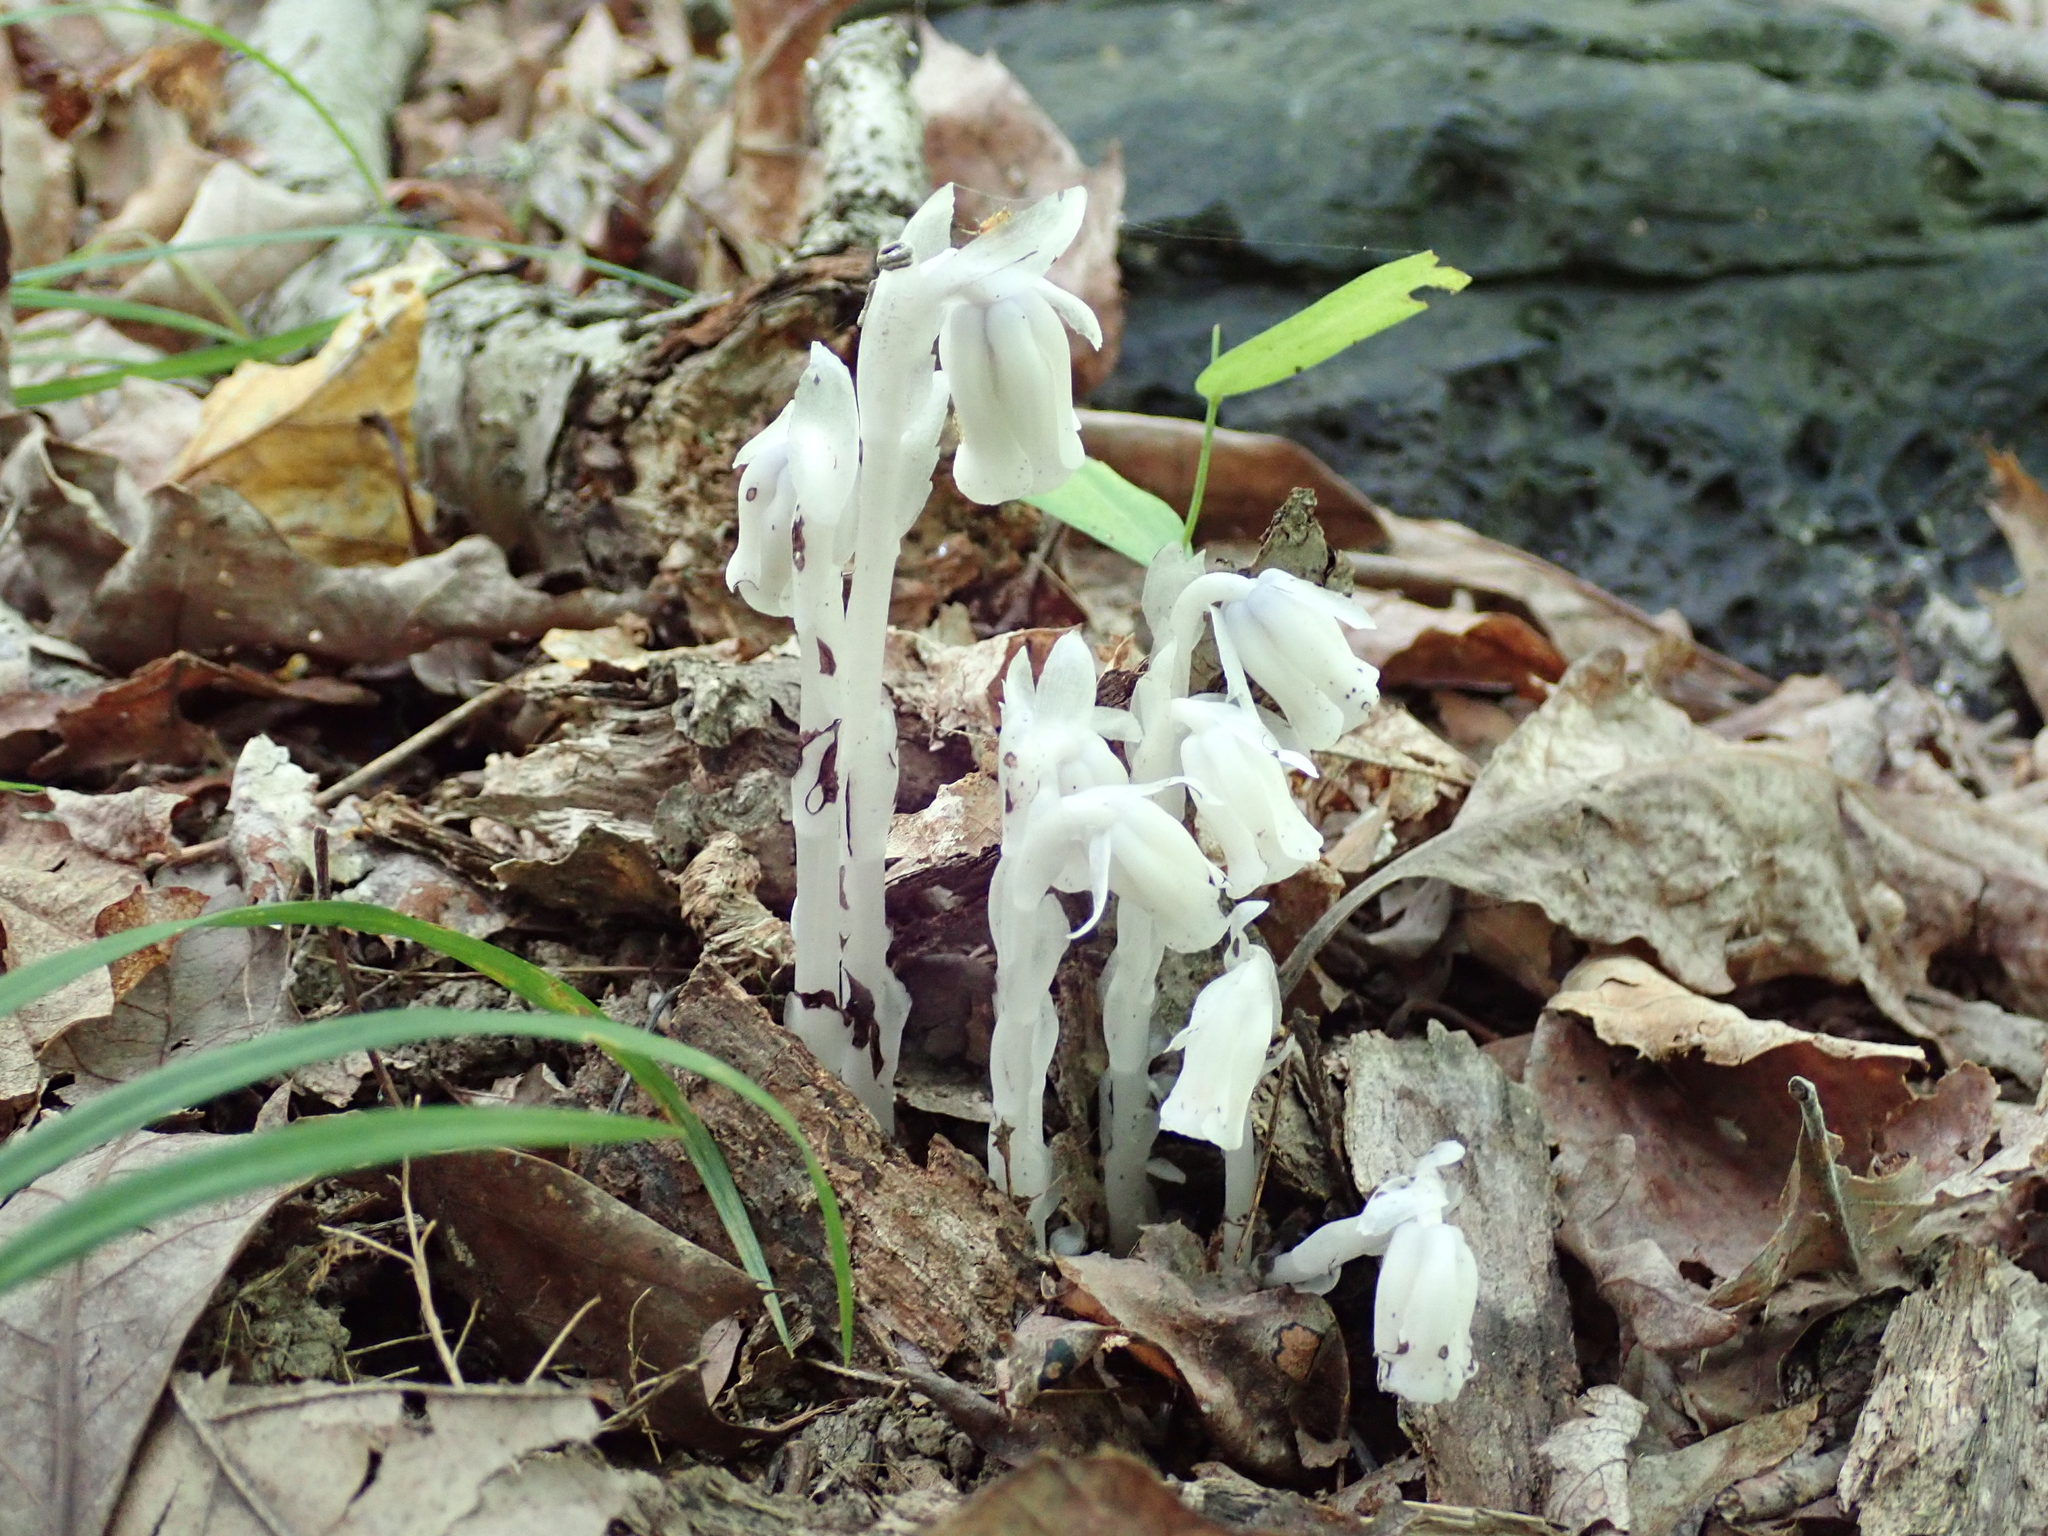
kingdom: Plantae
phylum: Tracheophyta
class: Magnoliopsida
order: Ericales
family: Ericaceae
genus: Monotropa
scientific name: Monotropa uniflora
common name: Convulsion root
